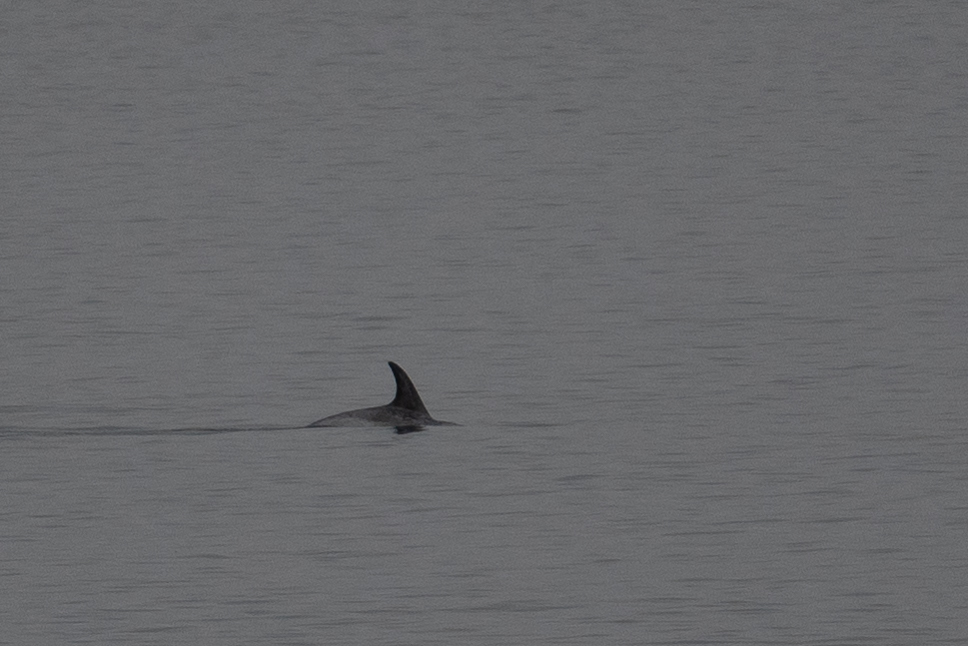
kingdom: Animalia
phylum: Chordata
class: Mammalia
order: Cetacea
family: Delphinidae
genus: Grampus
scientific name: Grampus griseus
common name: Risso's dolphin
